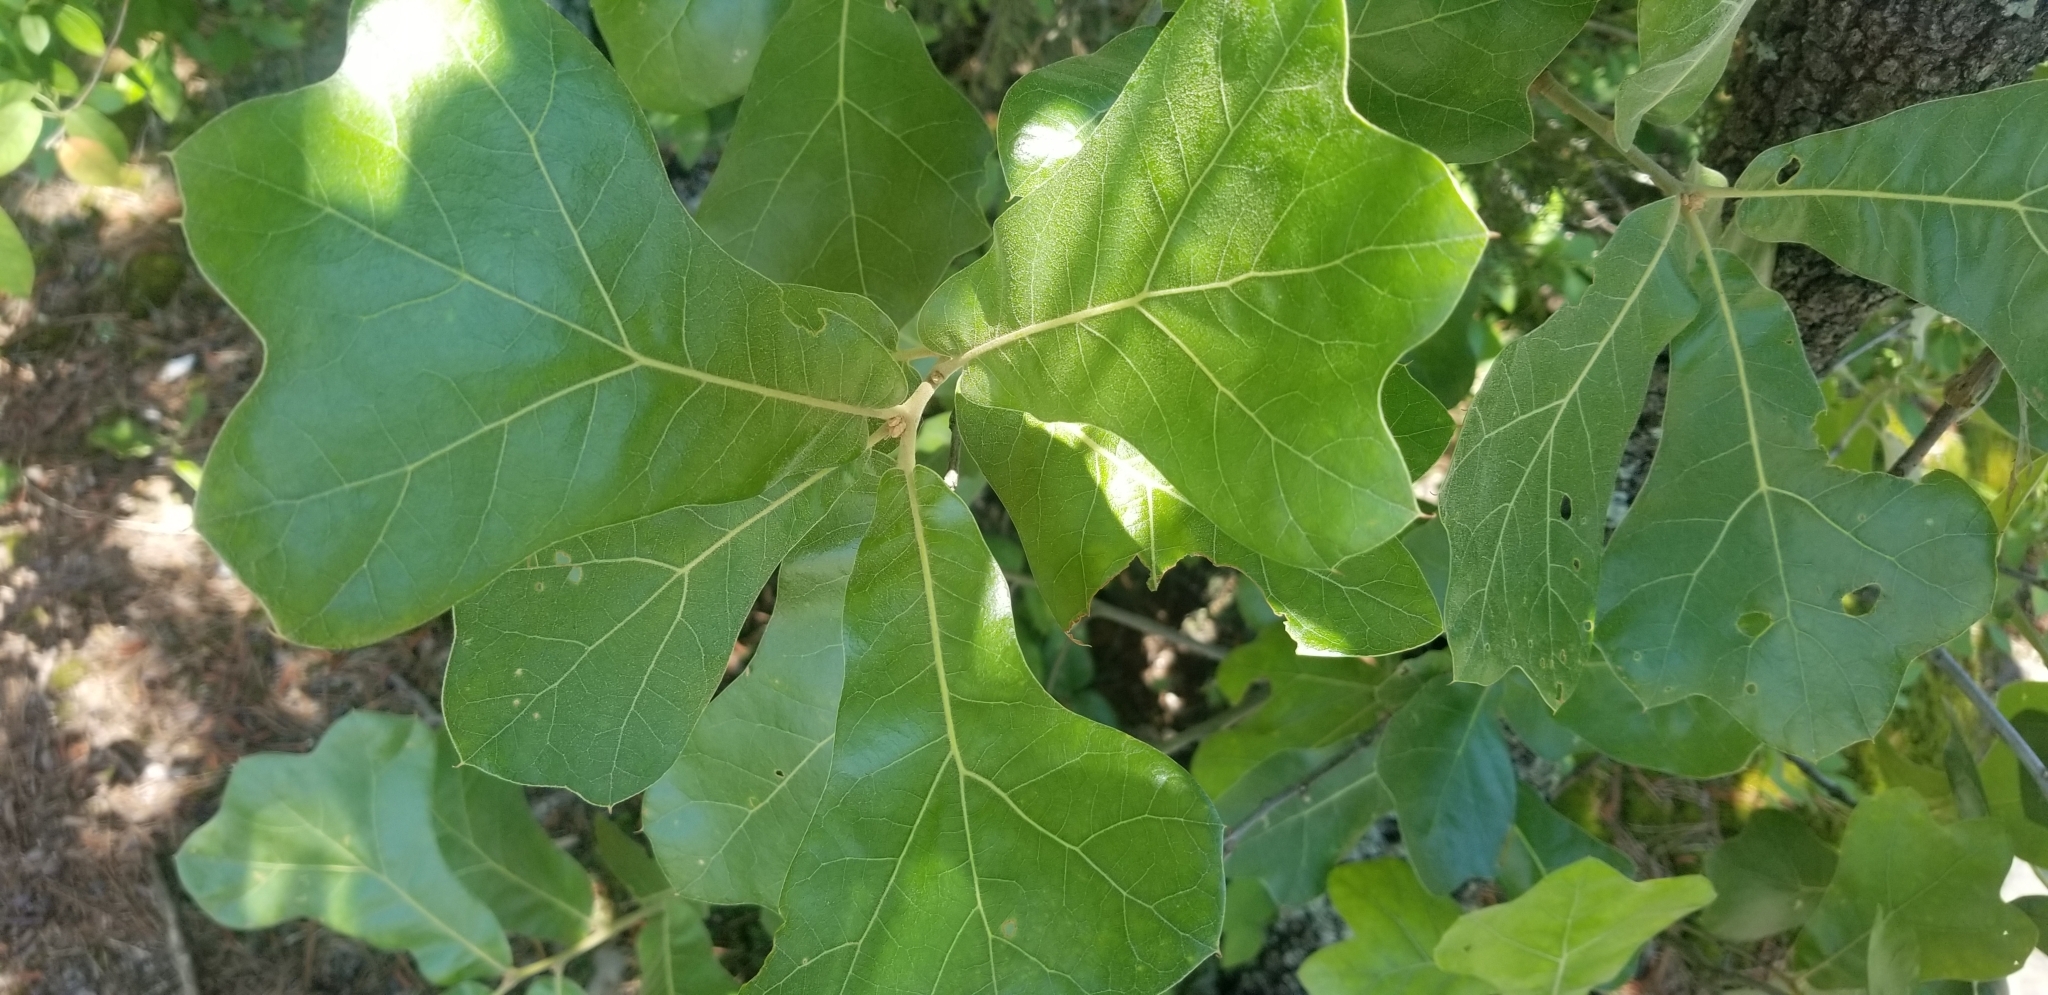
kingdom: Plantae
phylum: Tracheophyta
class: Magnoliopsida
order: Fagales
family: Fagaceae
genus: Quercus
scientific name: Quercus marilandica
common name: Blackjack oak
